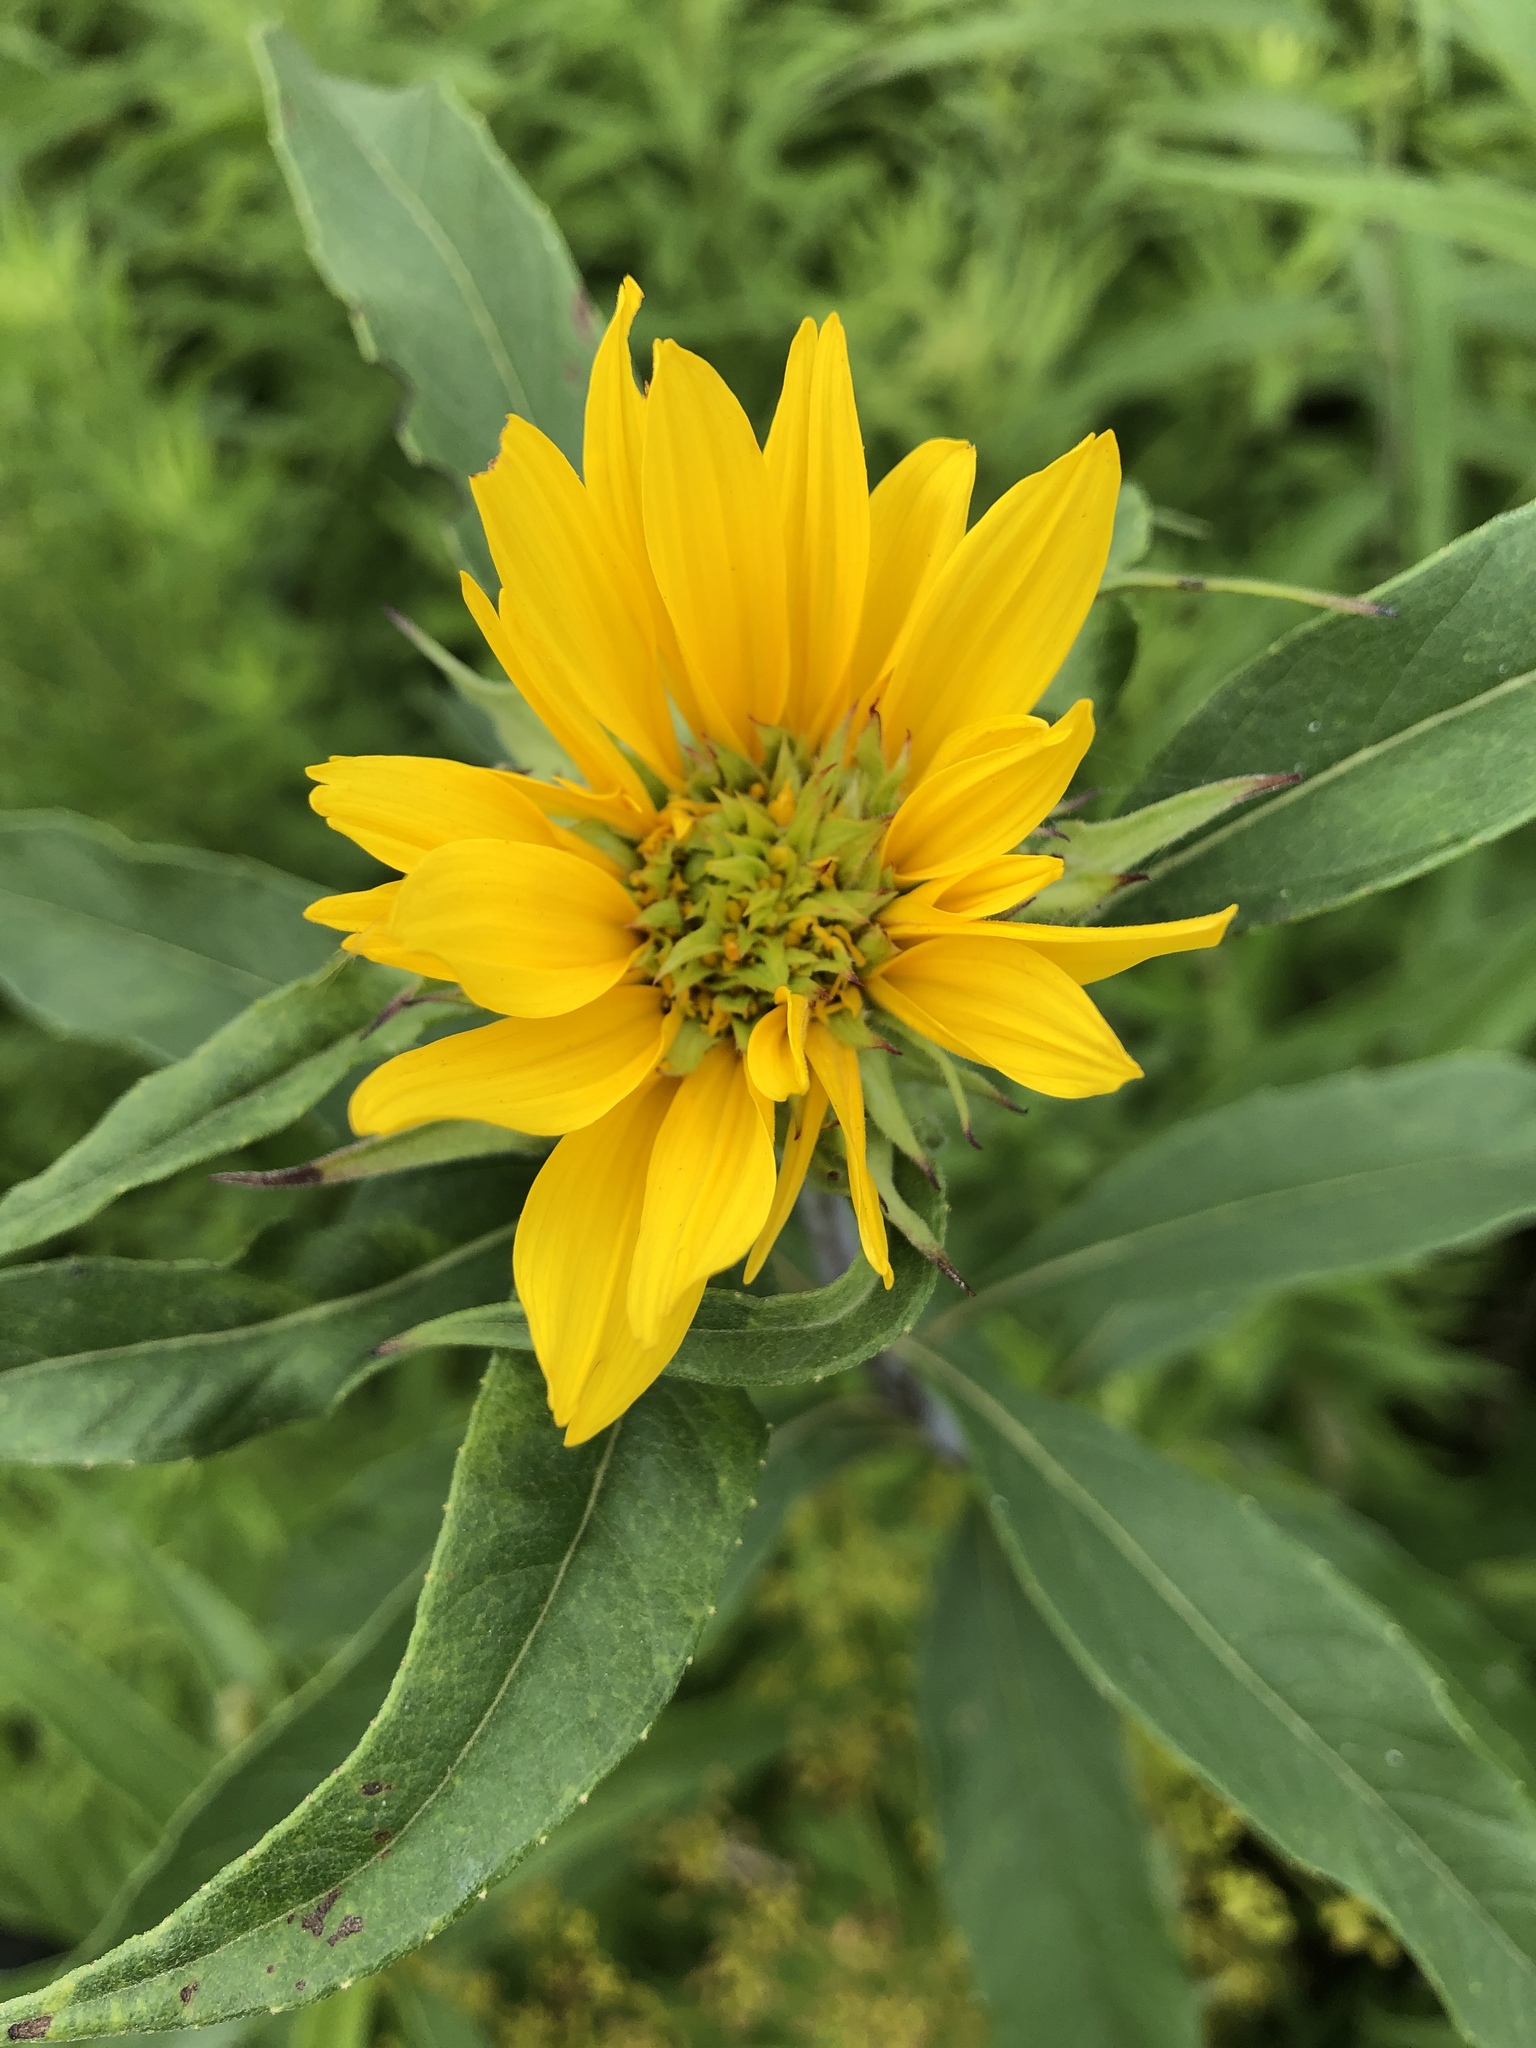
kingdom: Plantae
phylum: Tracheophyta
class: Magnoliopsida
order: Asterales
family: Asteraceae
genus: Helianthus
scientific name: Helianthus grosseserratus
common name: Sawtooth sunflower
